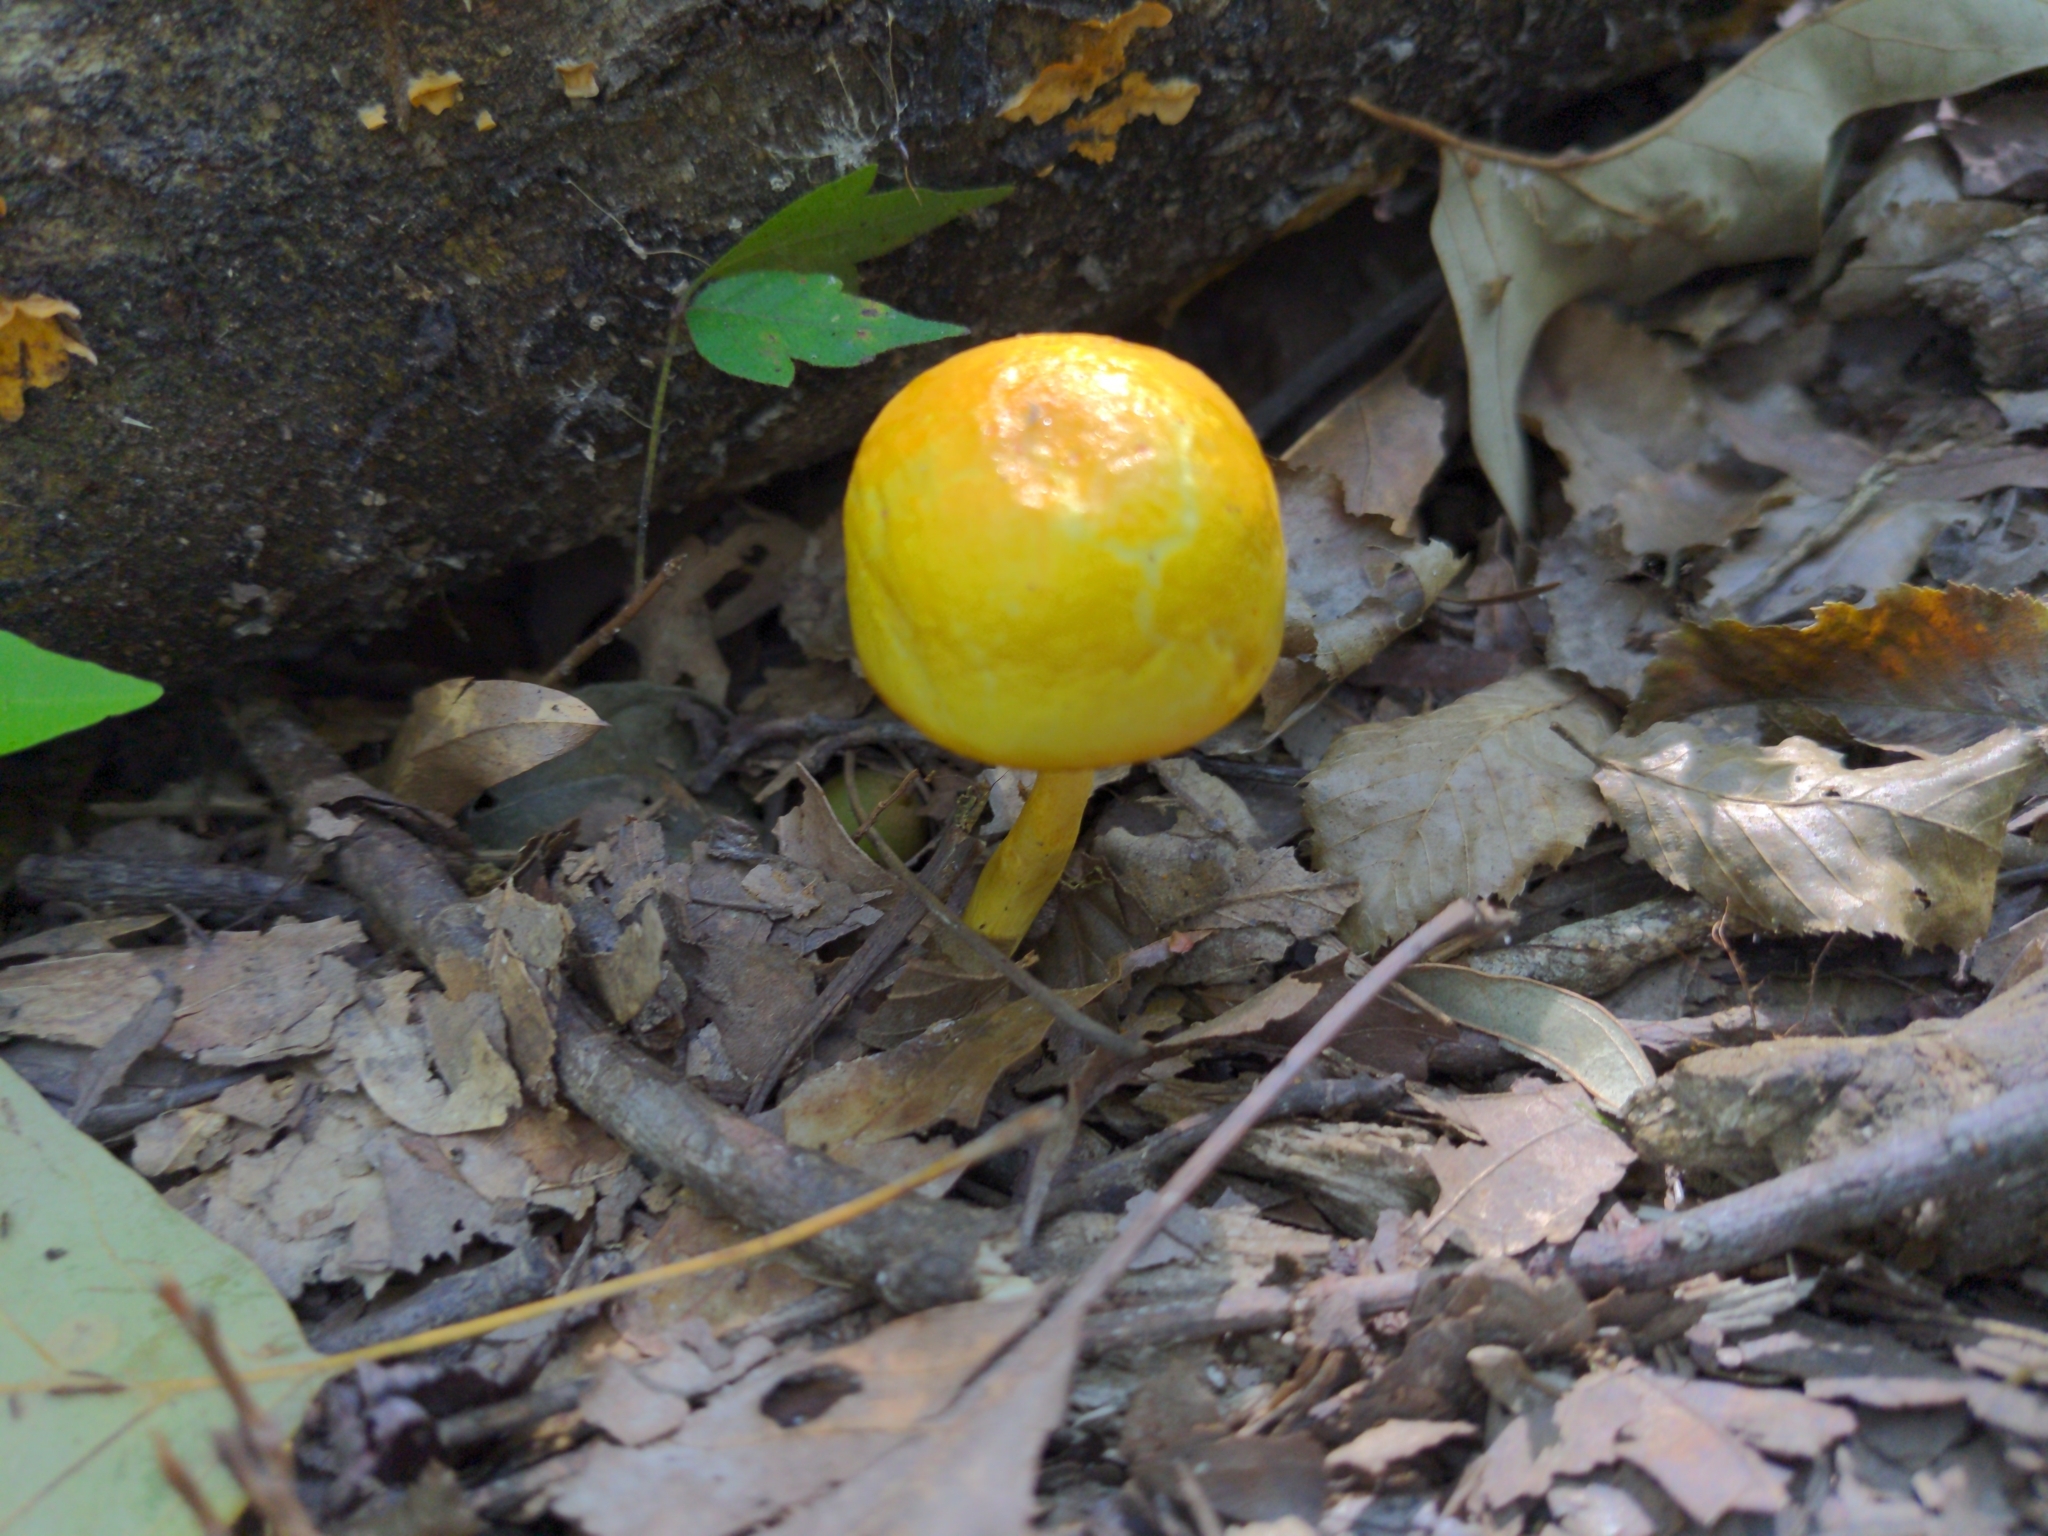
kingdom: Fungi
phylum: Basidiomycota
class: Agaricomycetes
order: Boletales
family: Boletaceae
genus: Pulveroboletus
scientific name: Pulveroboletus curtisii
